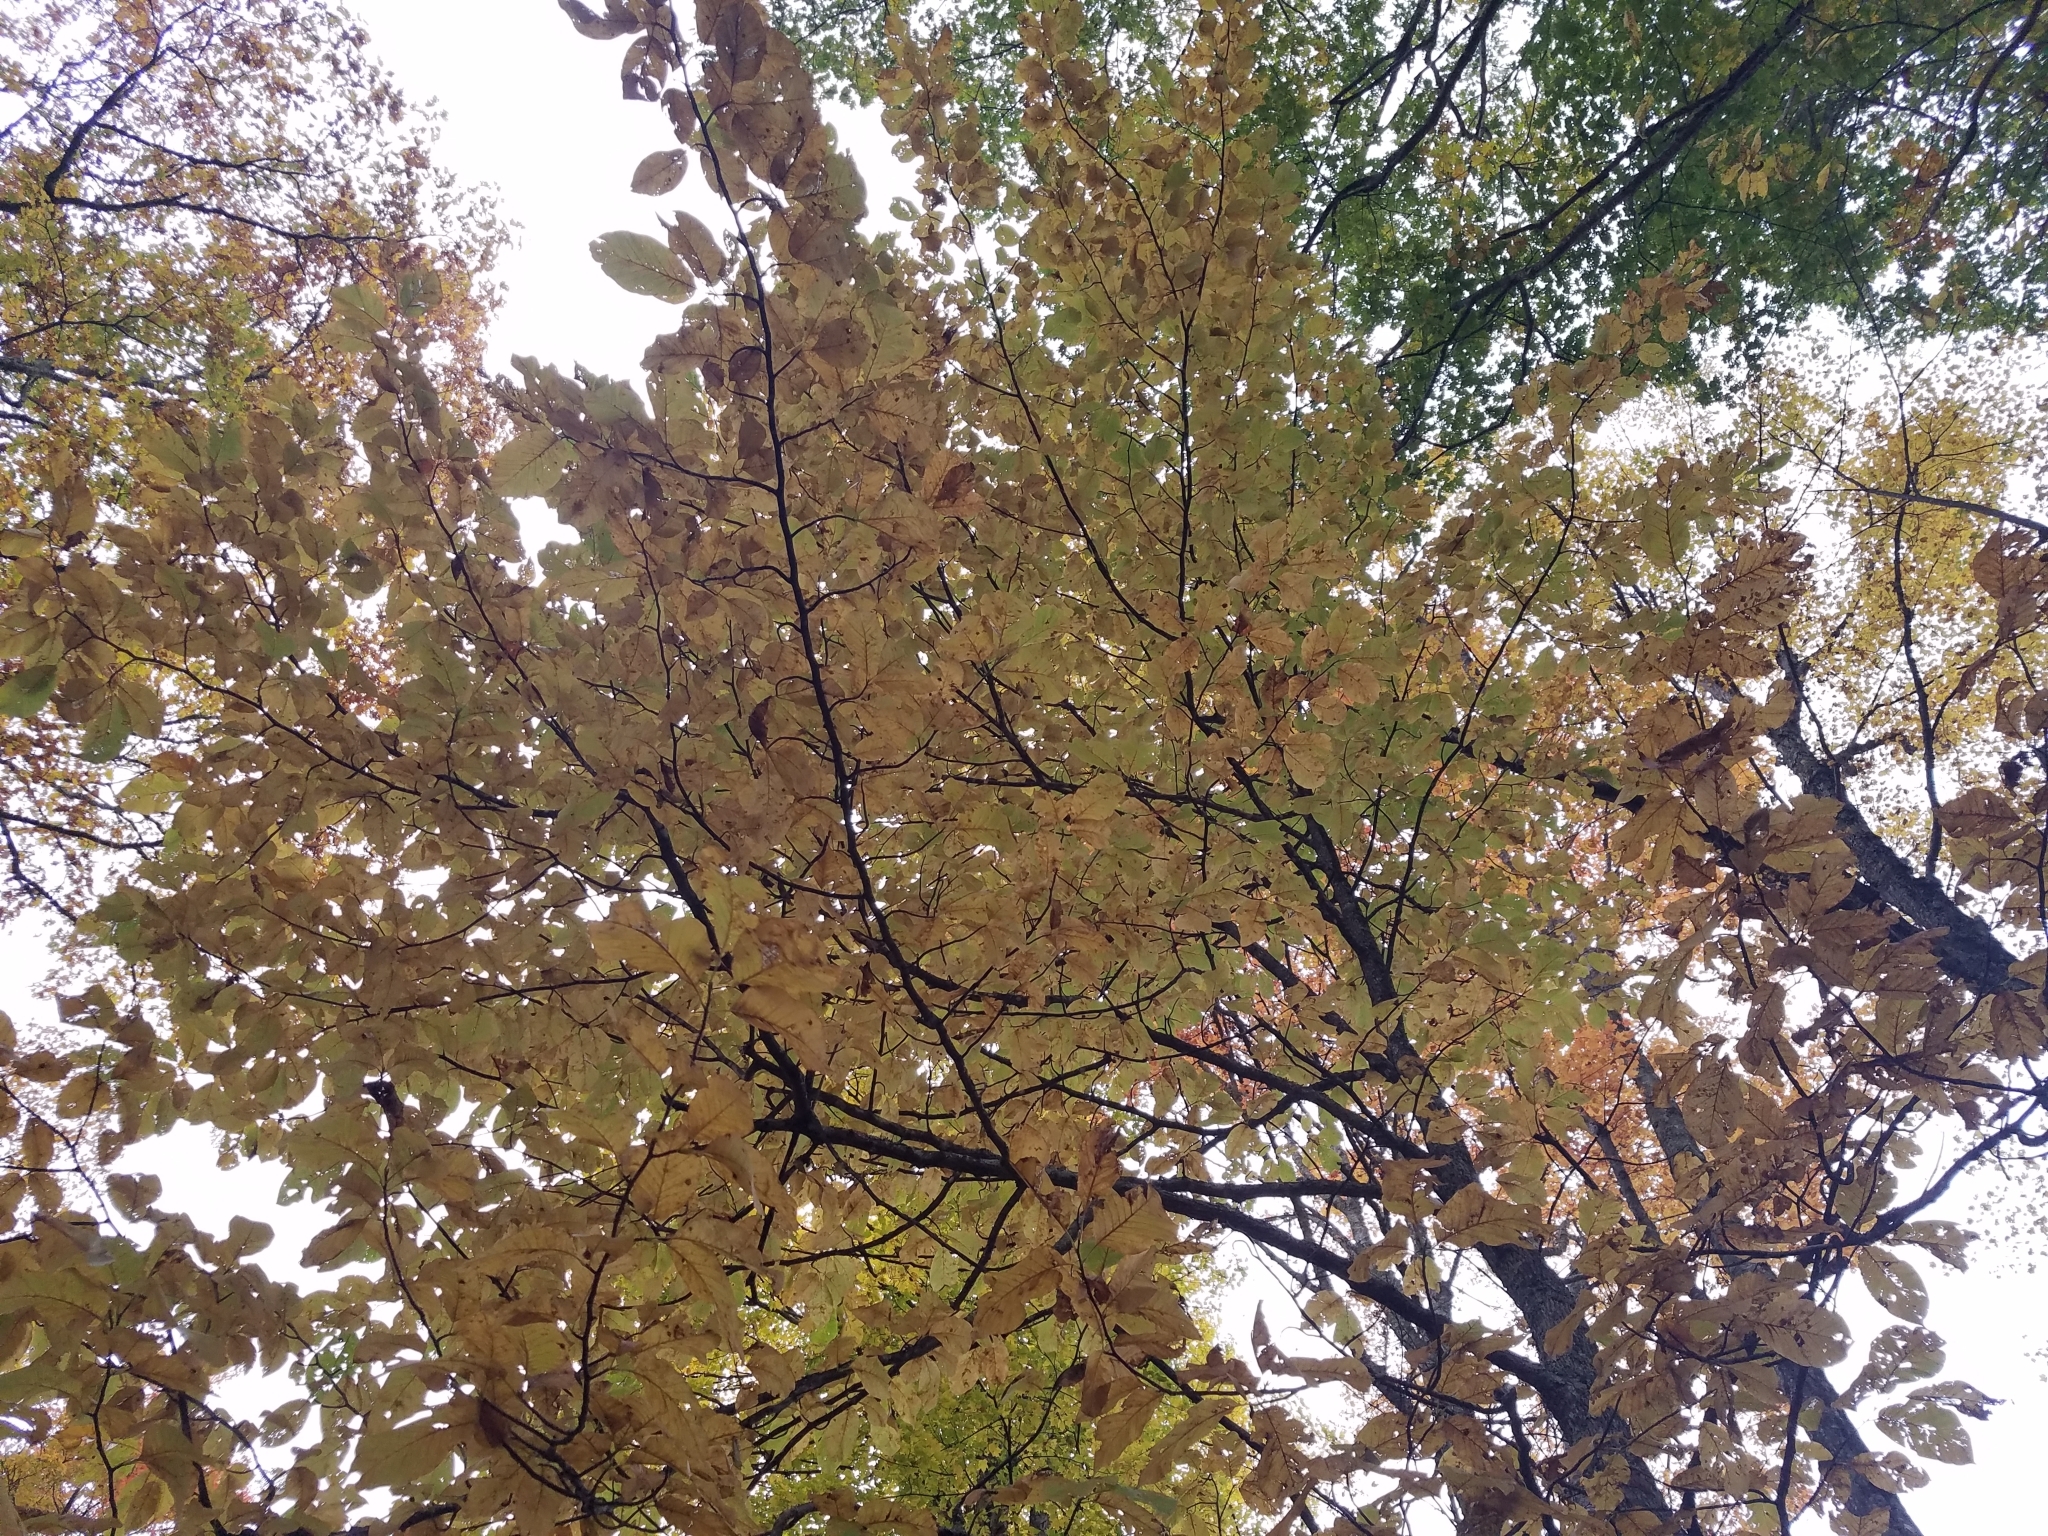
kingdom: Plantae
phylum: Tracheophyta
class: Magnoliopsida
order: Magnoliales
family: Magnoliaceae
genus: Magnolia
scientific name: Magnolia acuminata
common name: Cucumber magnolia
